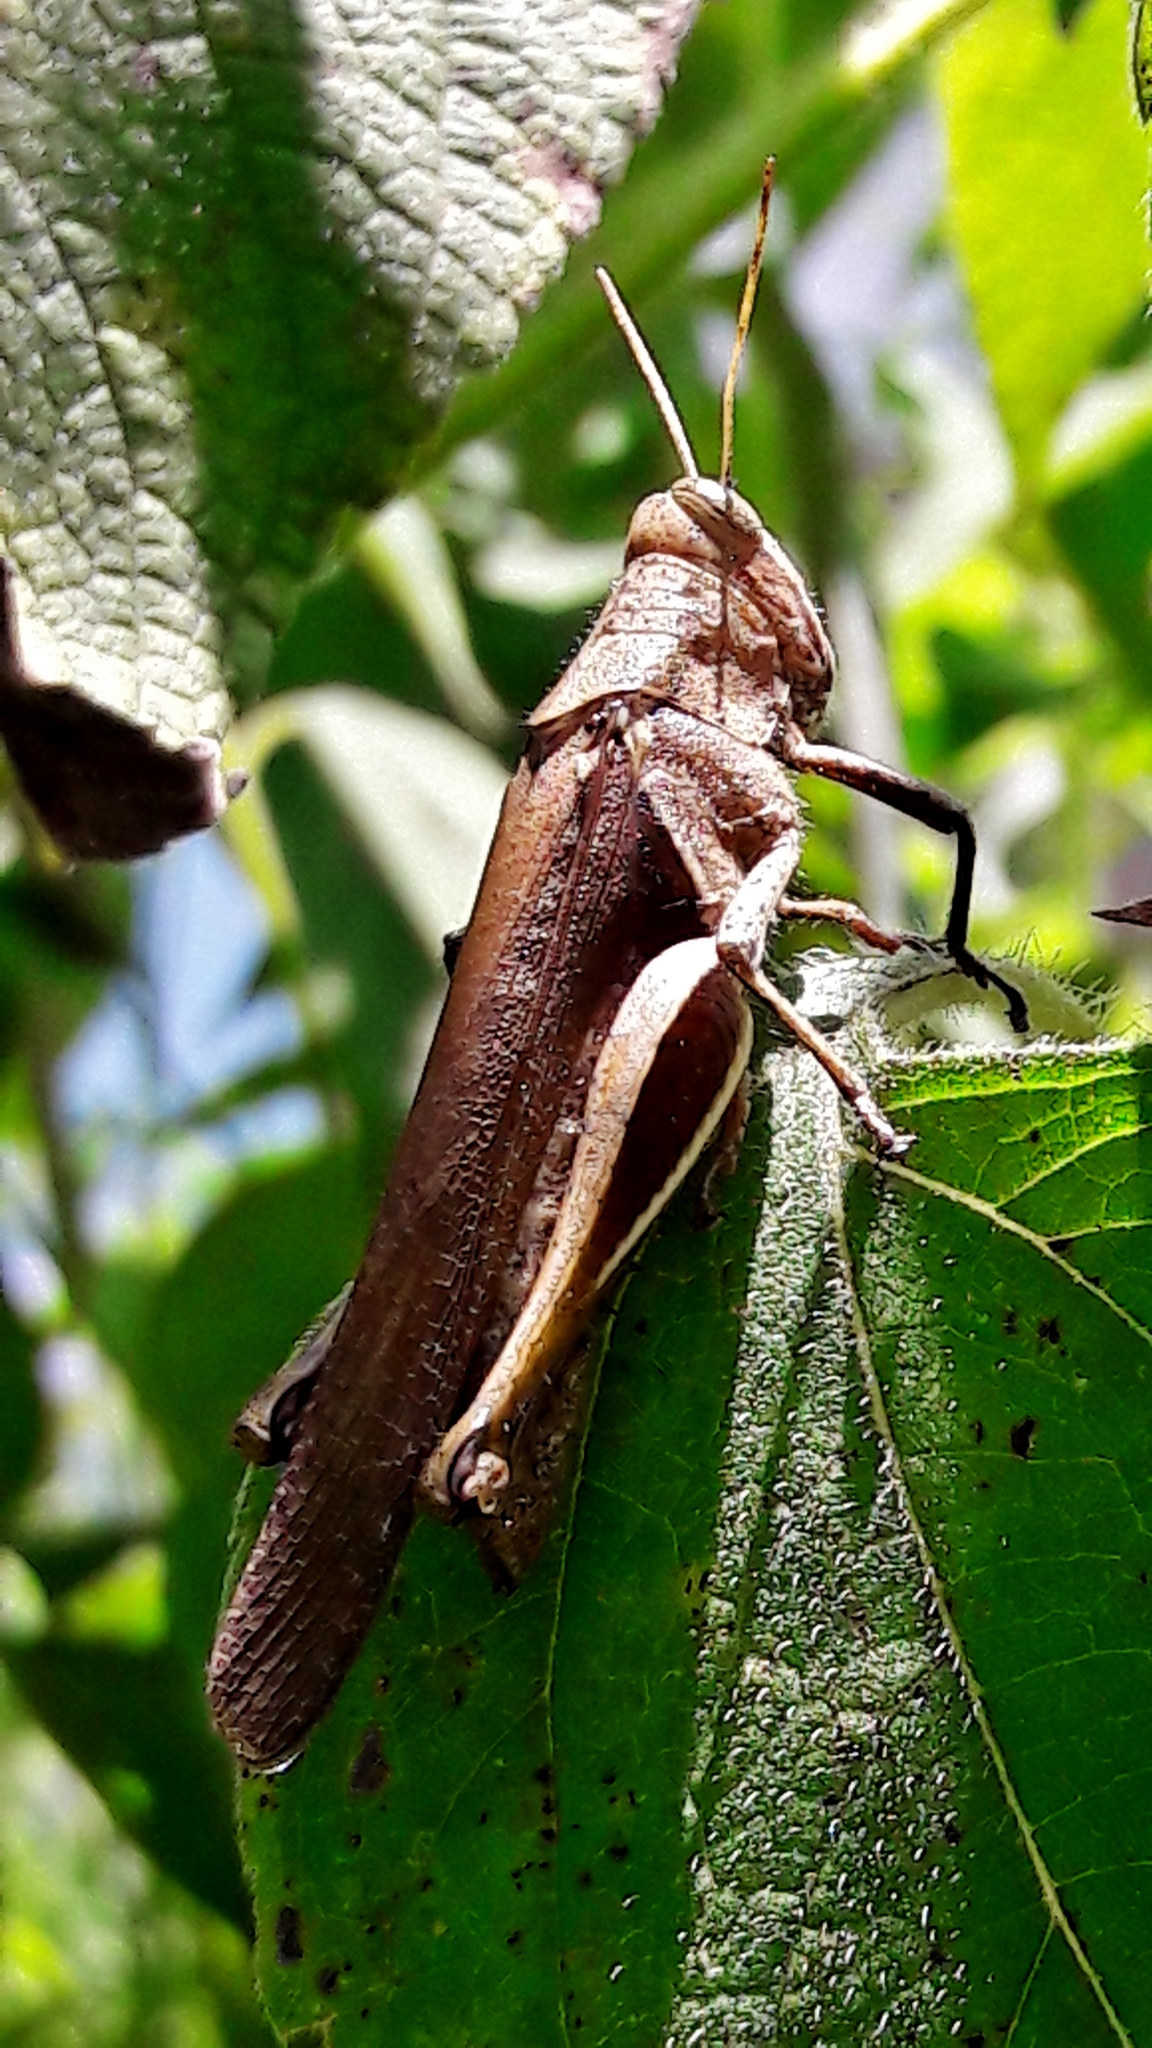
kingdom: Animalia
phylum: Arthropoda
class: Insecta
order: Orthoptera
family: Acrididae
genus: Abracris
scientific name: Abracris flavolineata
